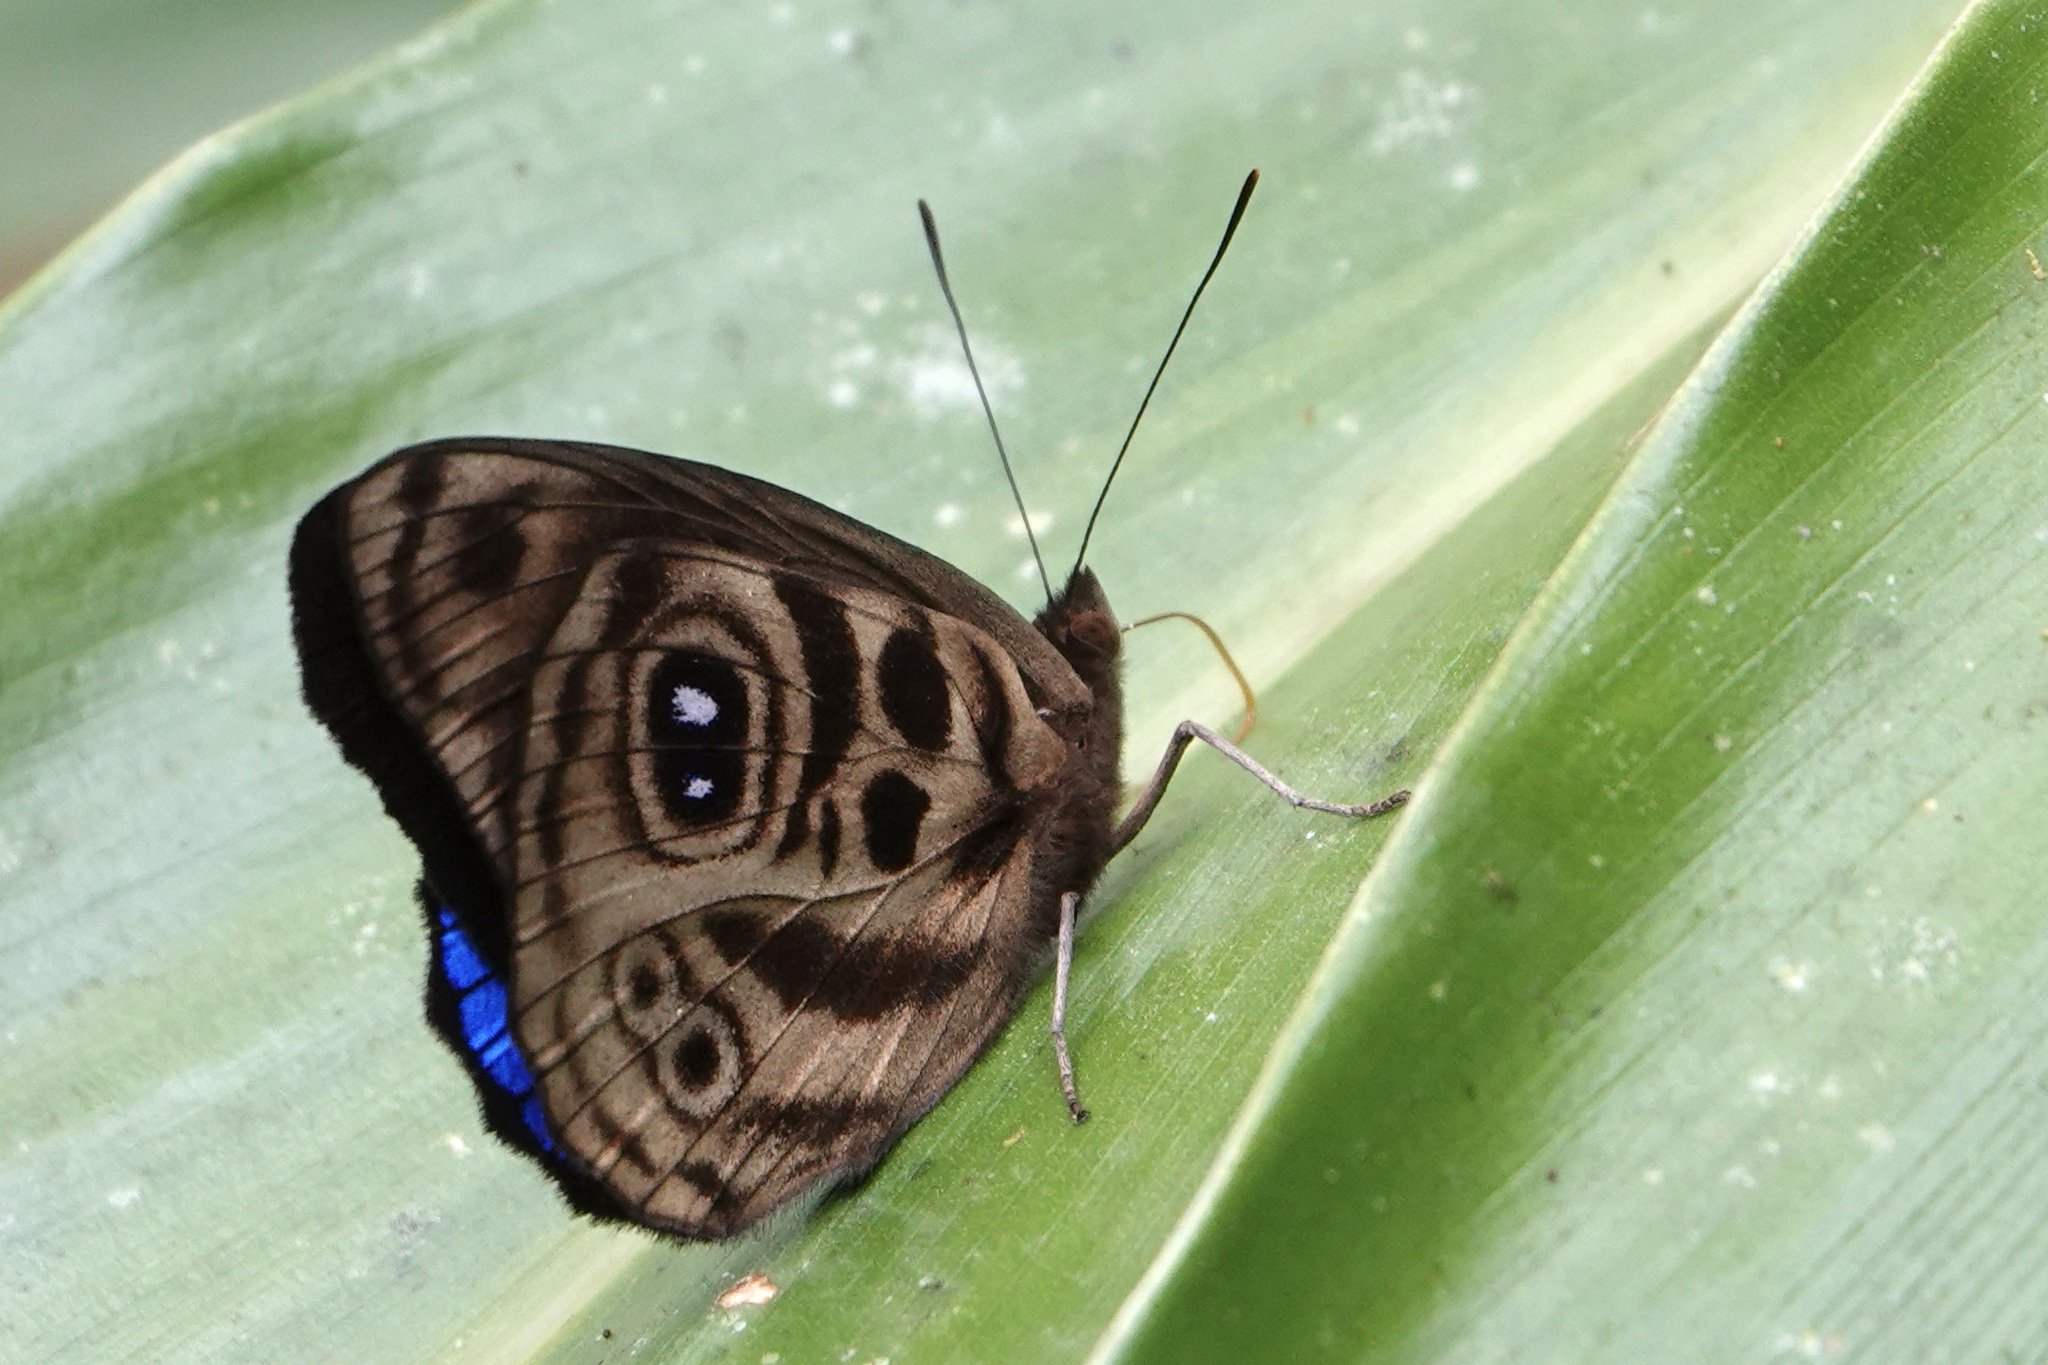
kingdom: Animalia
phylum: Arthropoda
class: Insecta
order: Lepidoptera
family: Nymphalidae
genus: Eunica
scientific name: Eunica norica
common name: Norica purplewing
